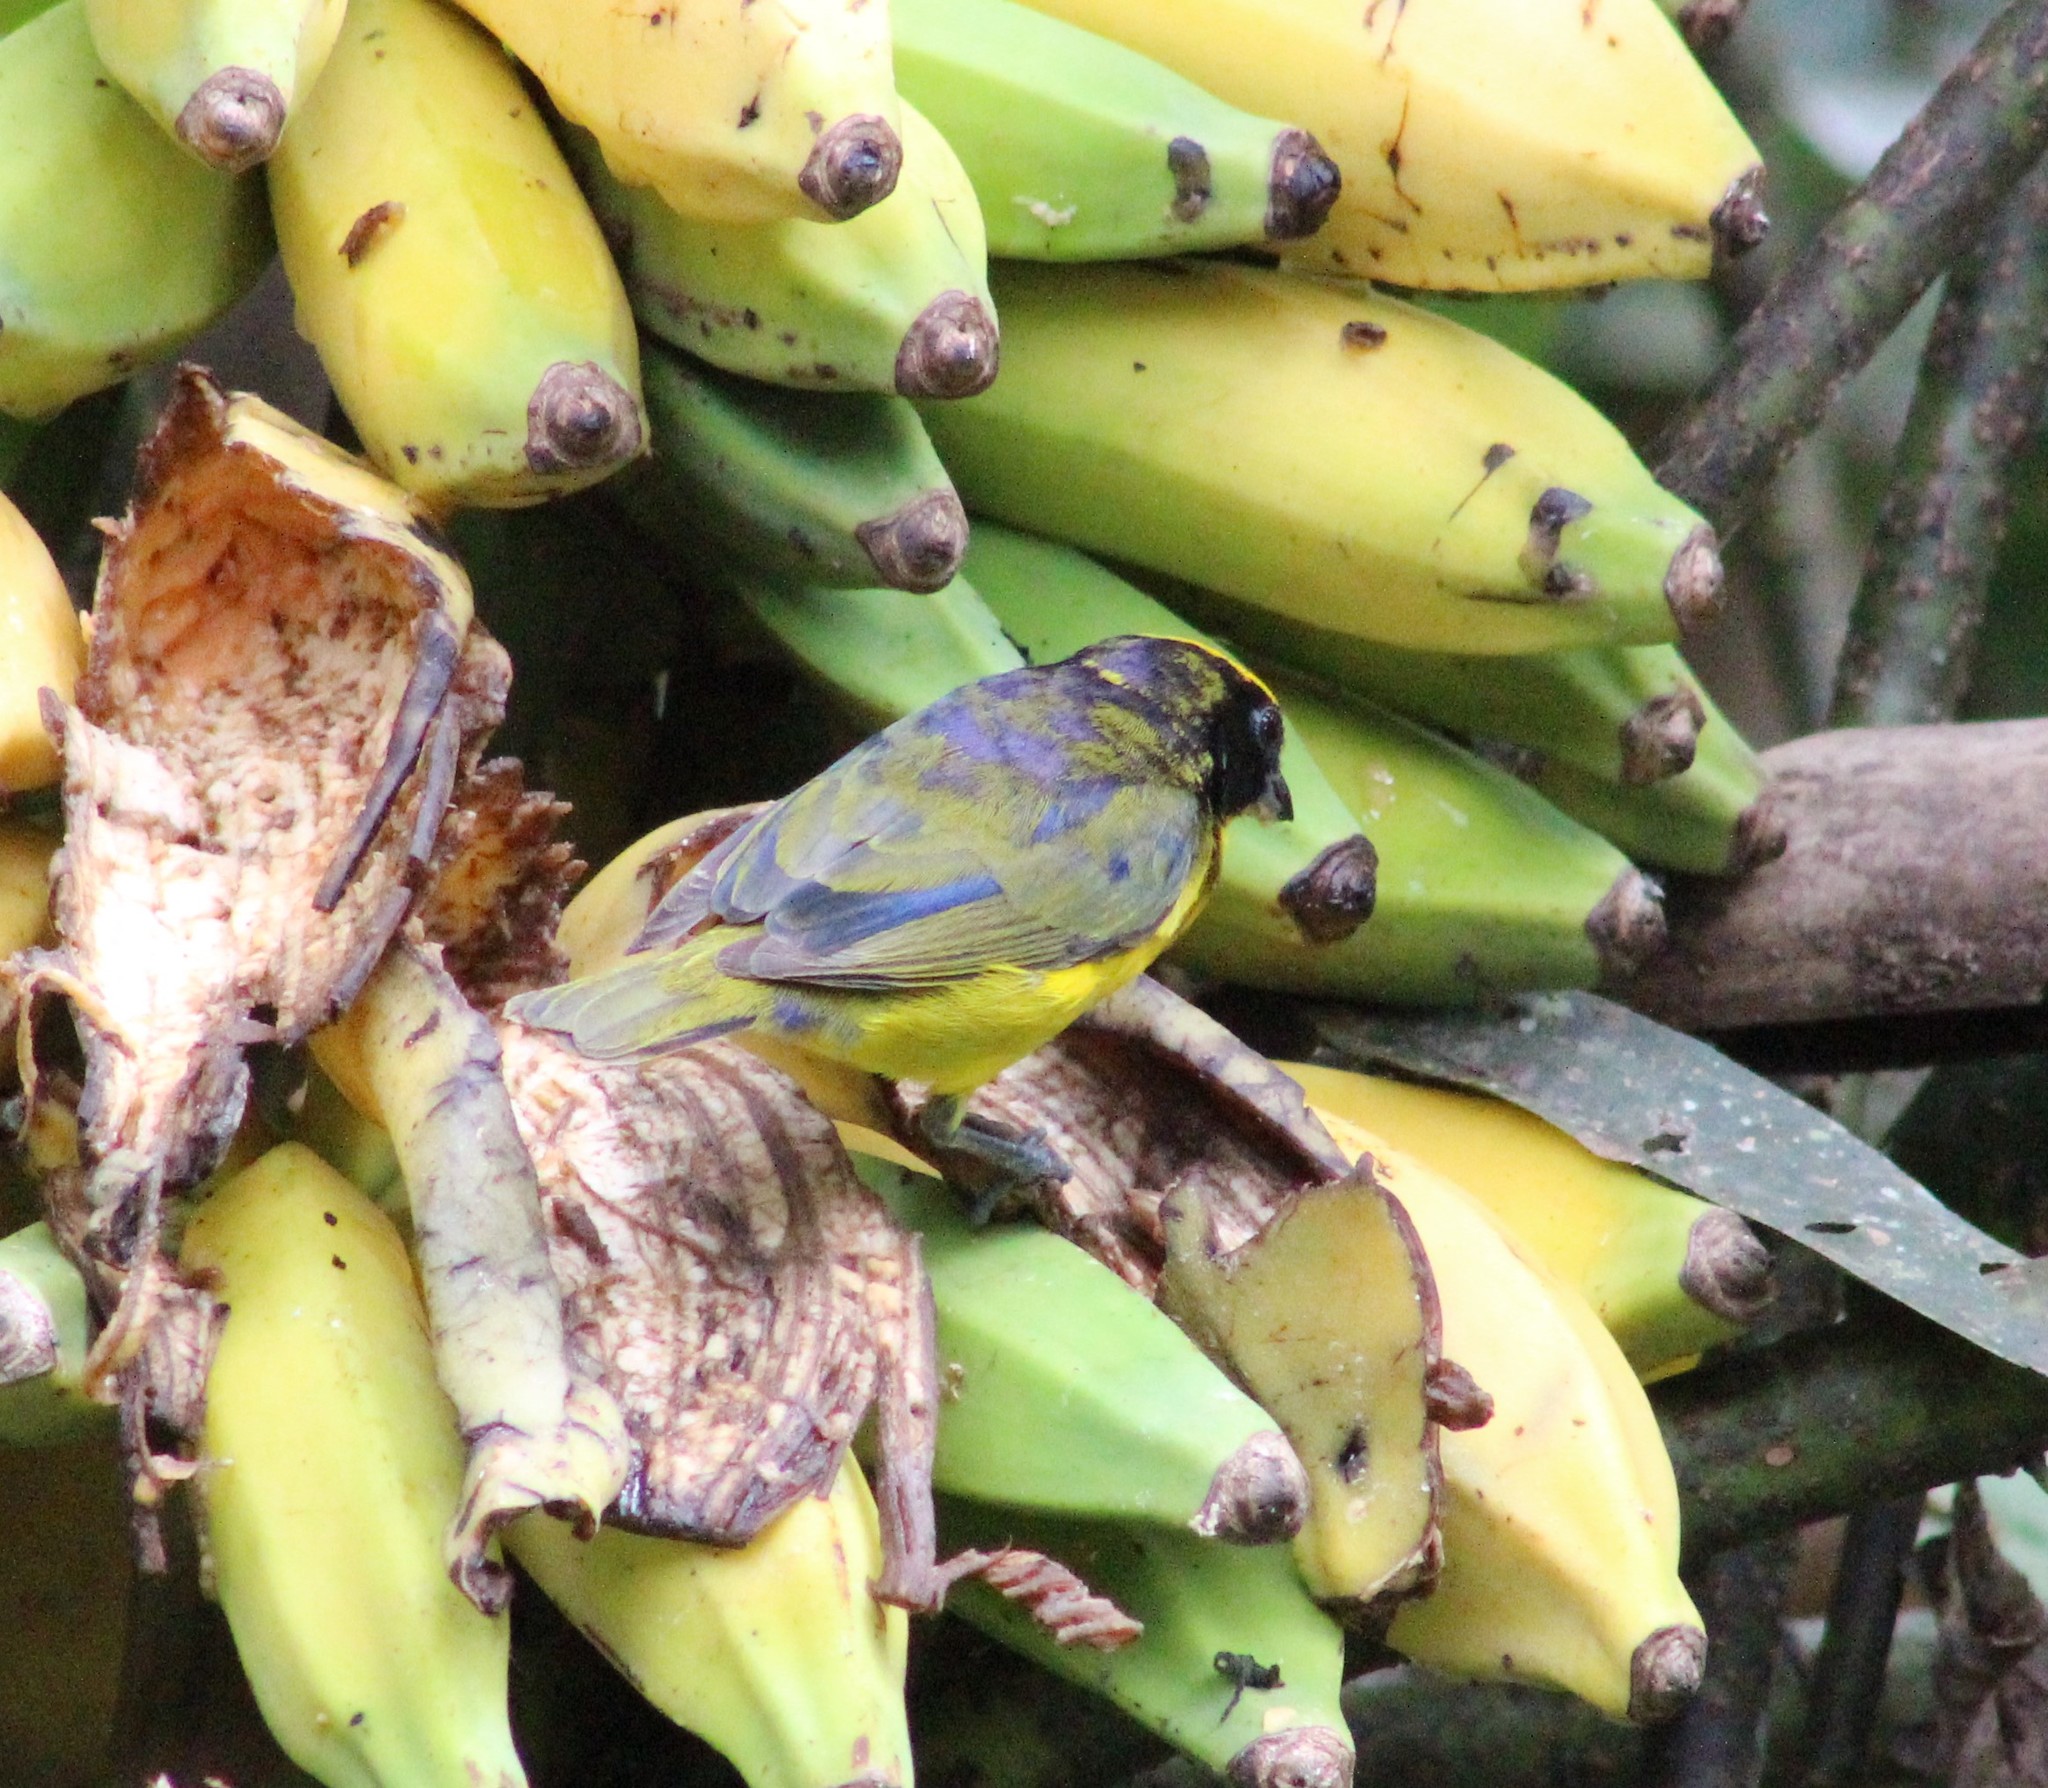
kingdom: Animalia
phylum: Chordata
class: Aves
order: Passeriformes
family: Fringillidae
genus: Euphonia
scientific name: Euphonia laniirostris
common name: Thick-billed euphonia
